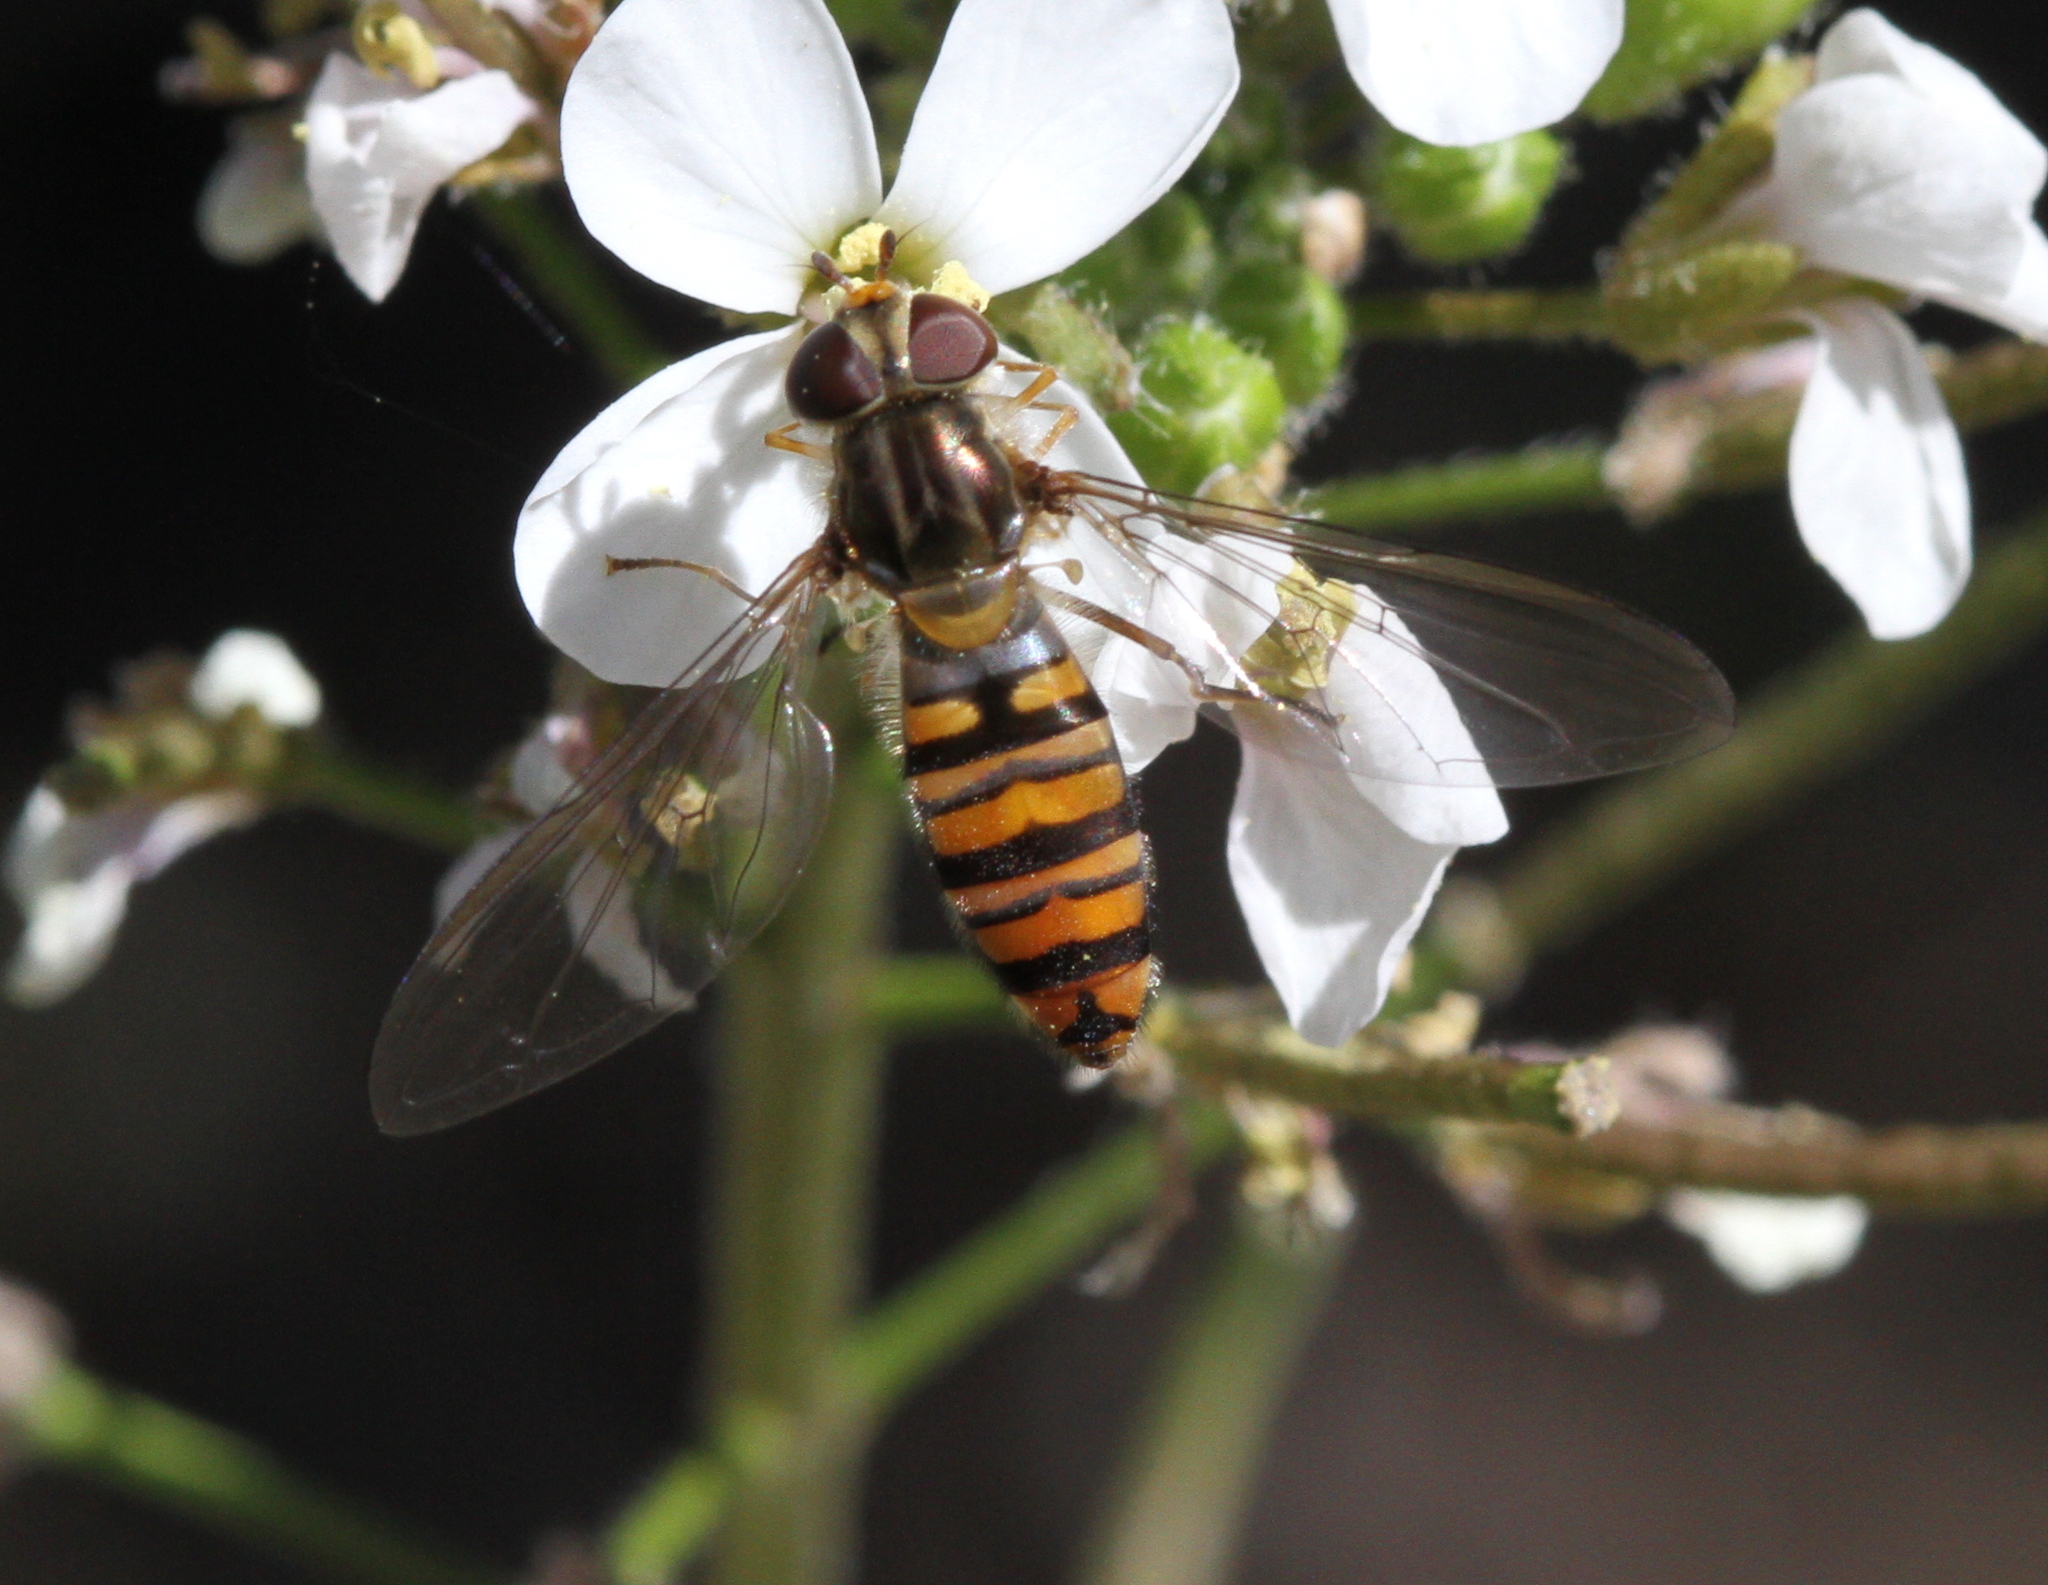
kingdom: Animalia
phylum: Arthropoda
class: Insecta
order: Diptera
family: Syrphidae
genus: Episyrphus
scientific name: Episyrphus balteatus
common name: Marmalade hoverfly
